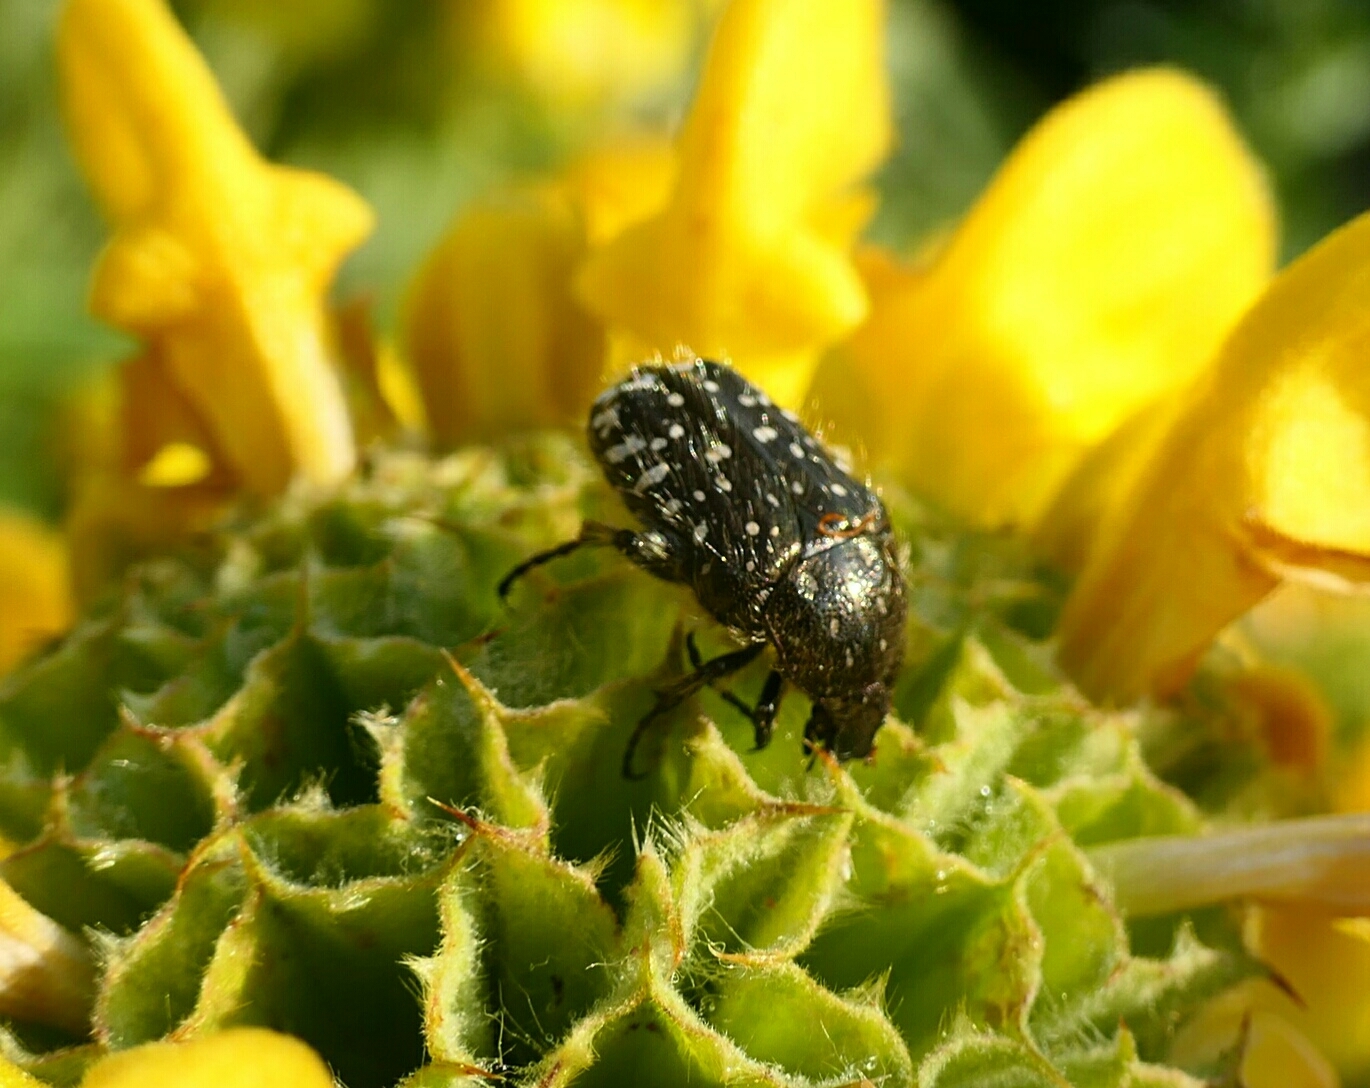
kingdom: Animalia
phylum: Arthropoda
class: Insecta
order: Coleoptera
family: Scarabaeidae
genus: Oxythyrea
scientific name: Oxythyrea funesta
